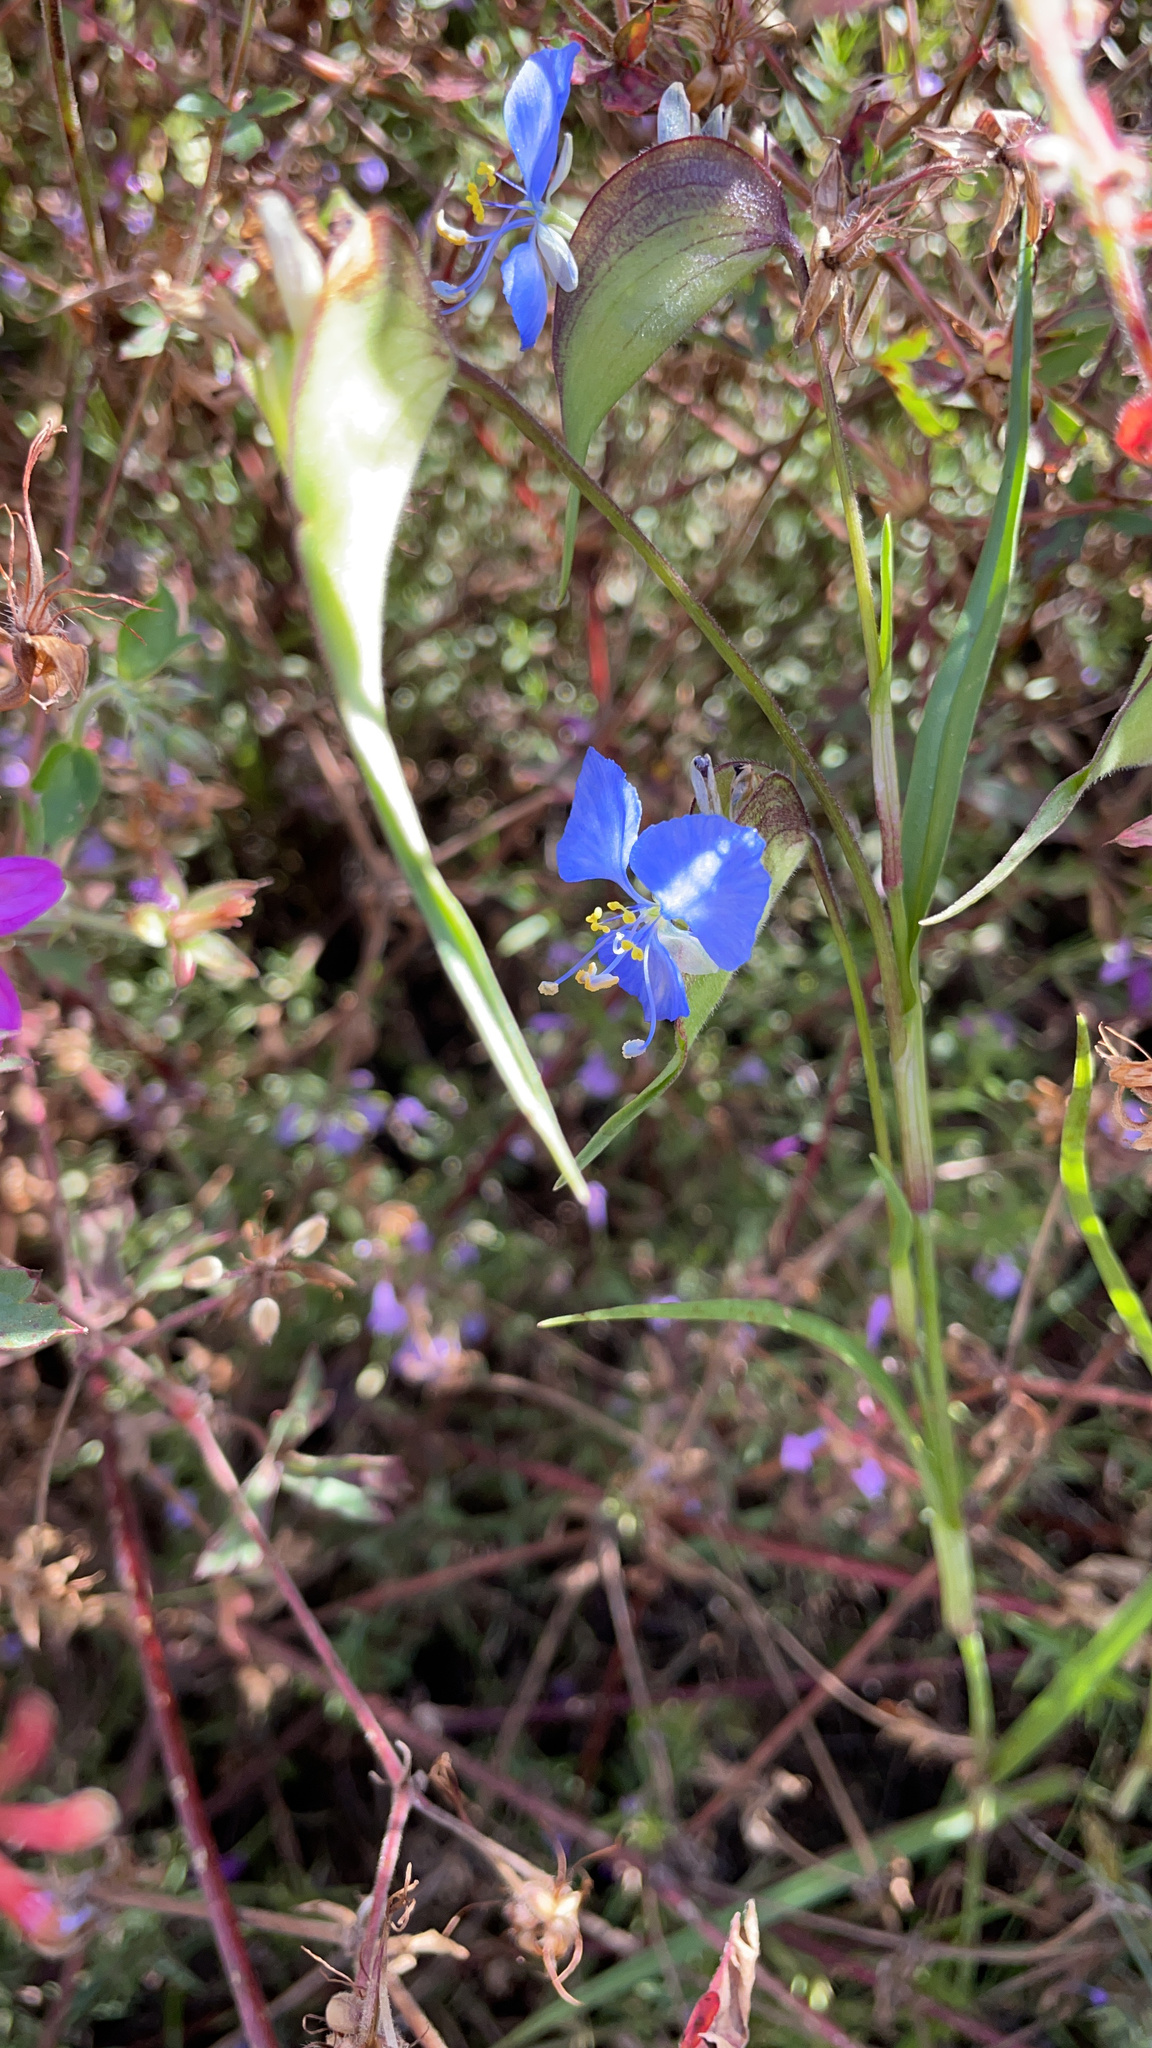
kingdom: Plantae
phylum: Tracheophyta
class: Liliopsida
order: Commelinales
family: Commelinaceae
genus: Commelina
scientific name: Commelina dianthifolia
